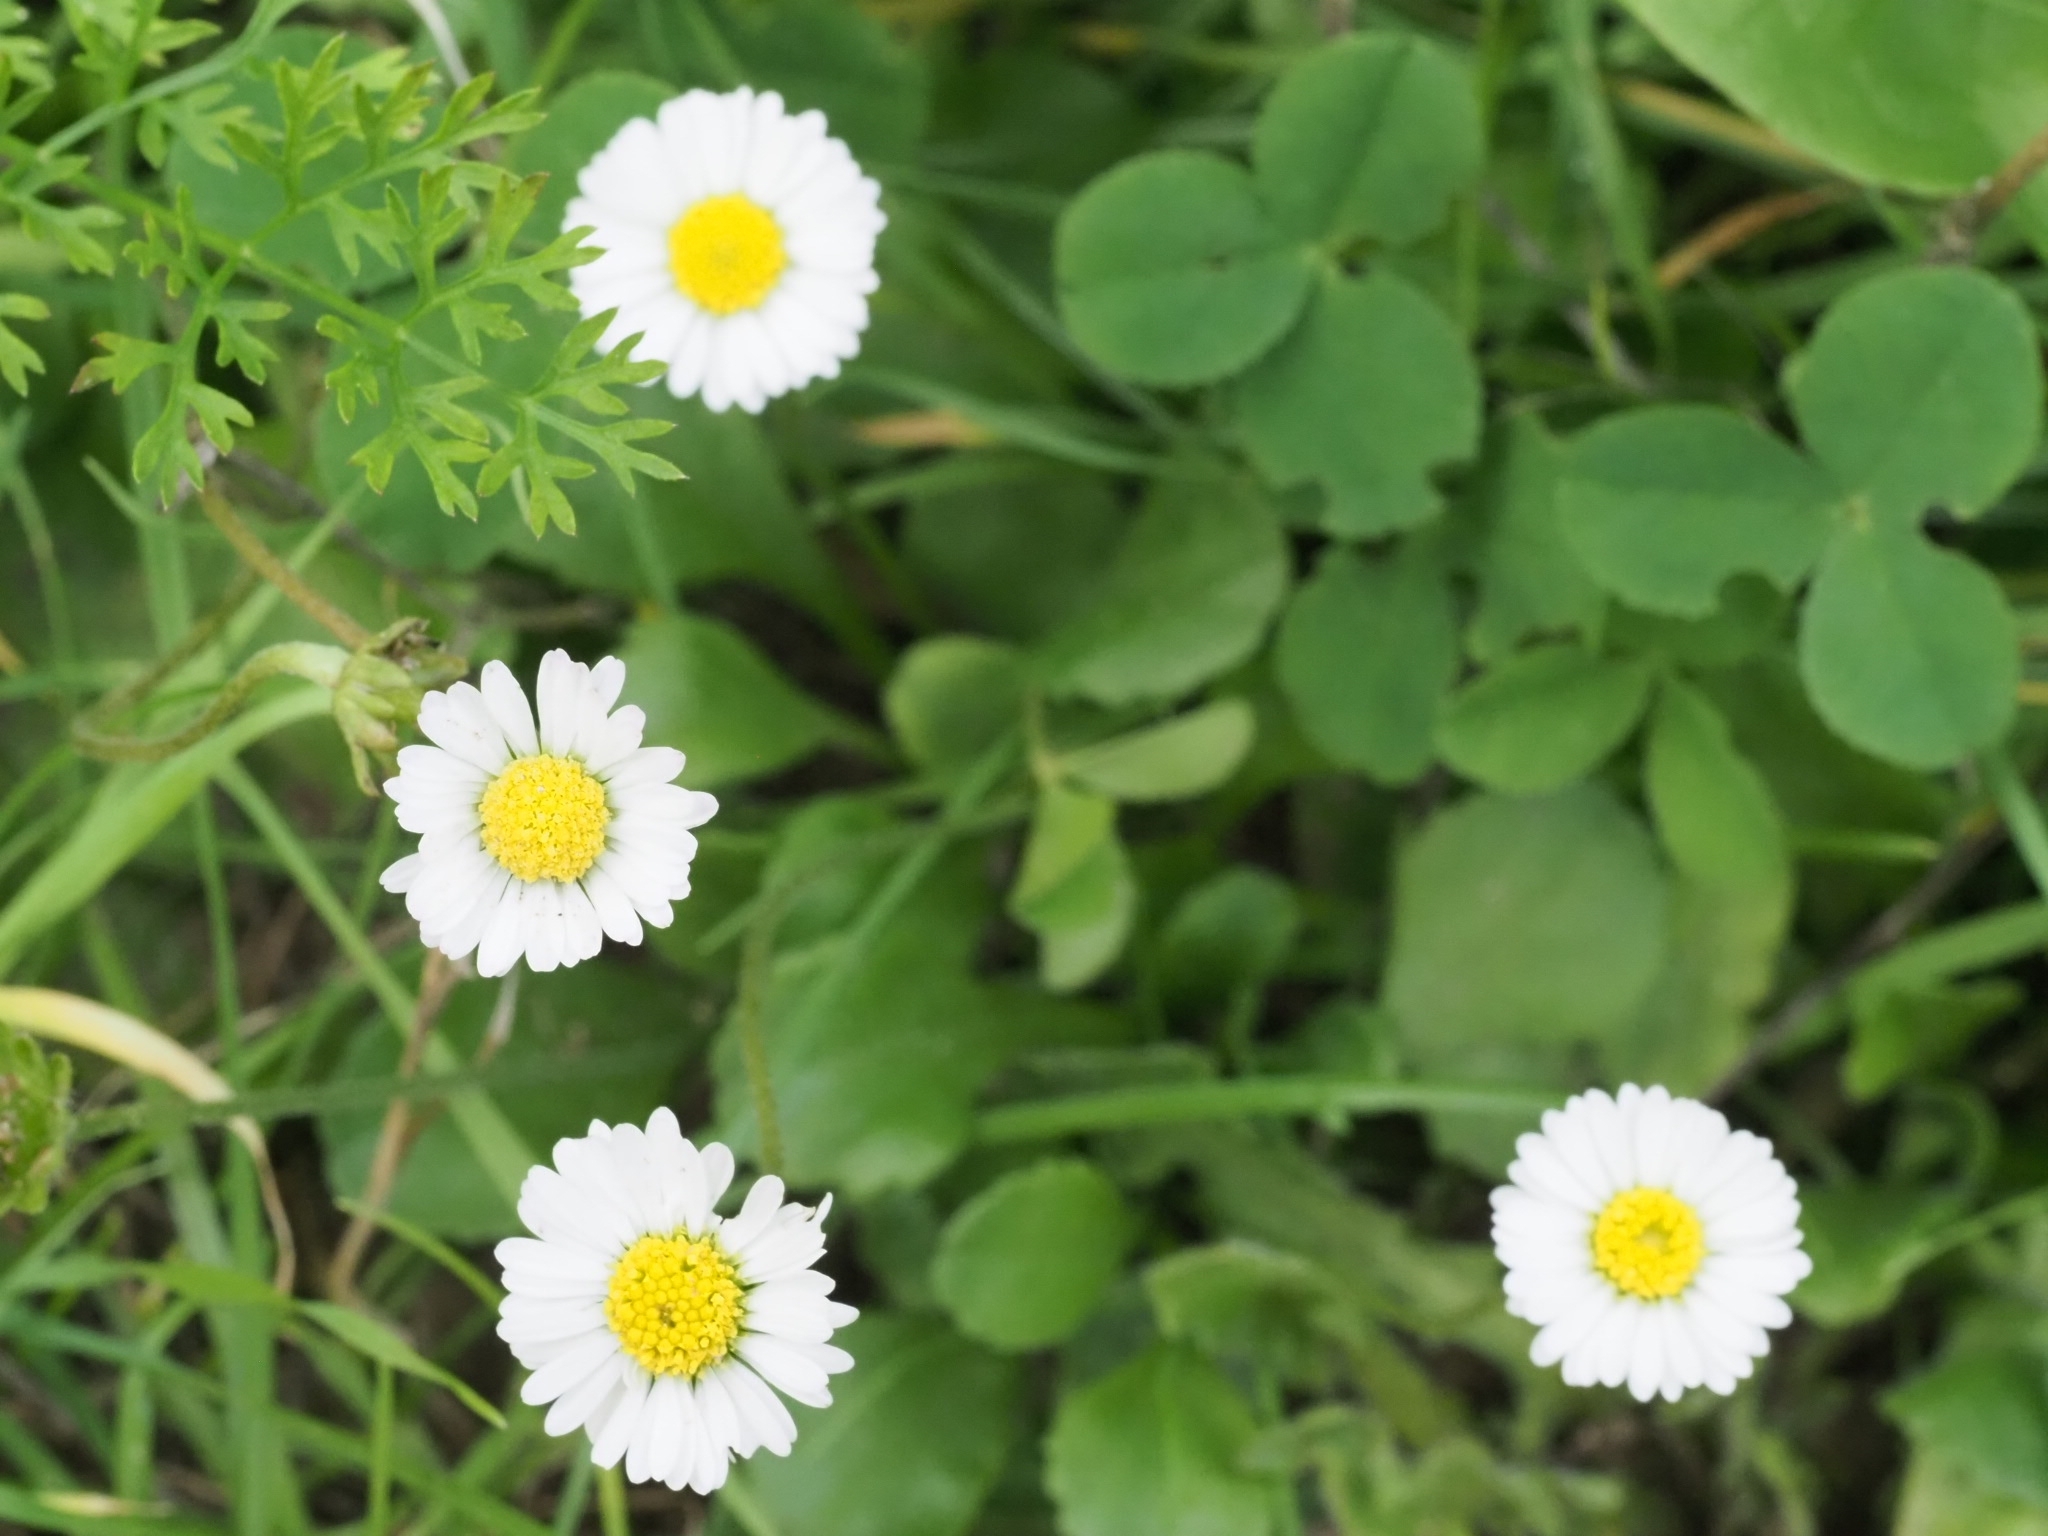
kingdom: Plantae
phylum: Tracheophyta
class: Magnoliopsida
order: Asterales
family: Asteraceae
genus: Bellis
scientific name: Bellis perennis
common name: Lawndaisy
